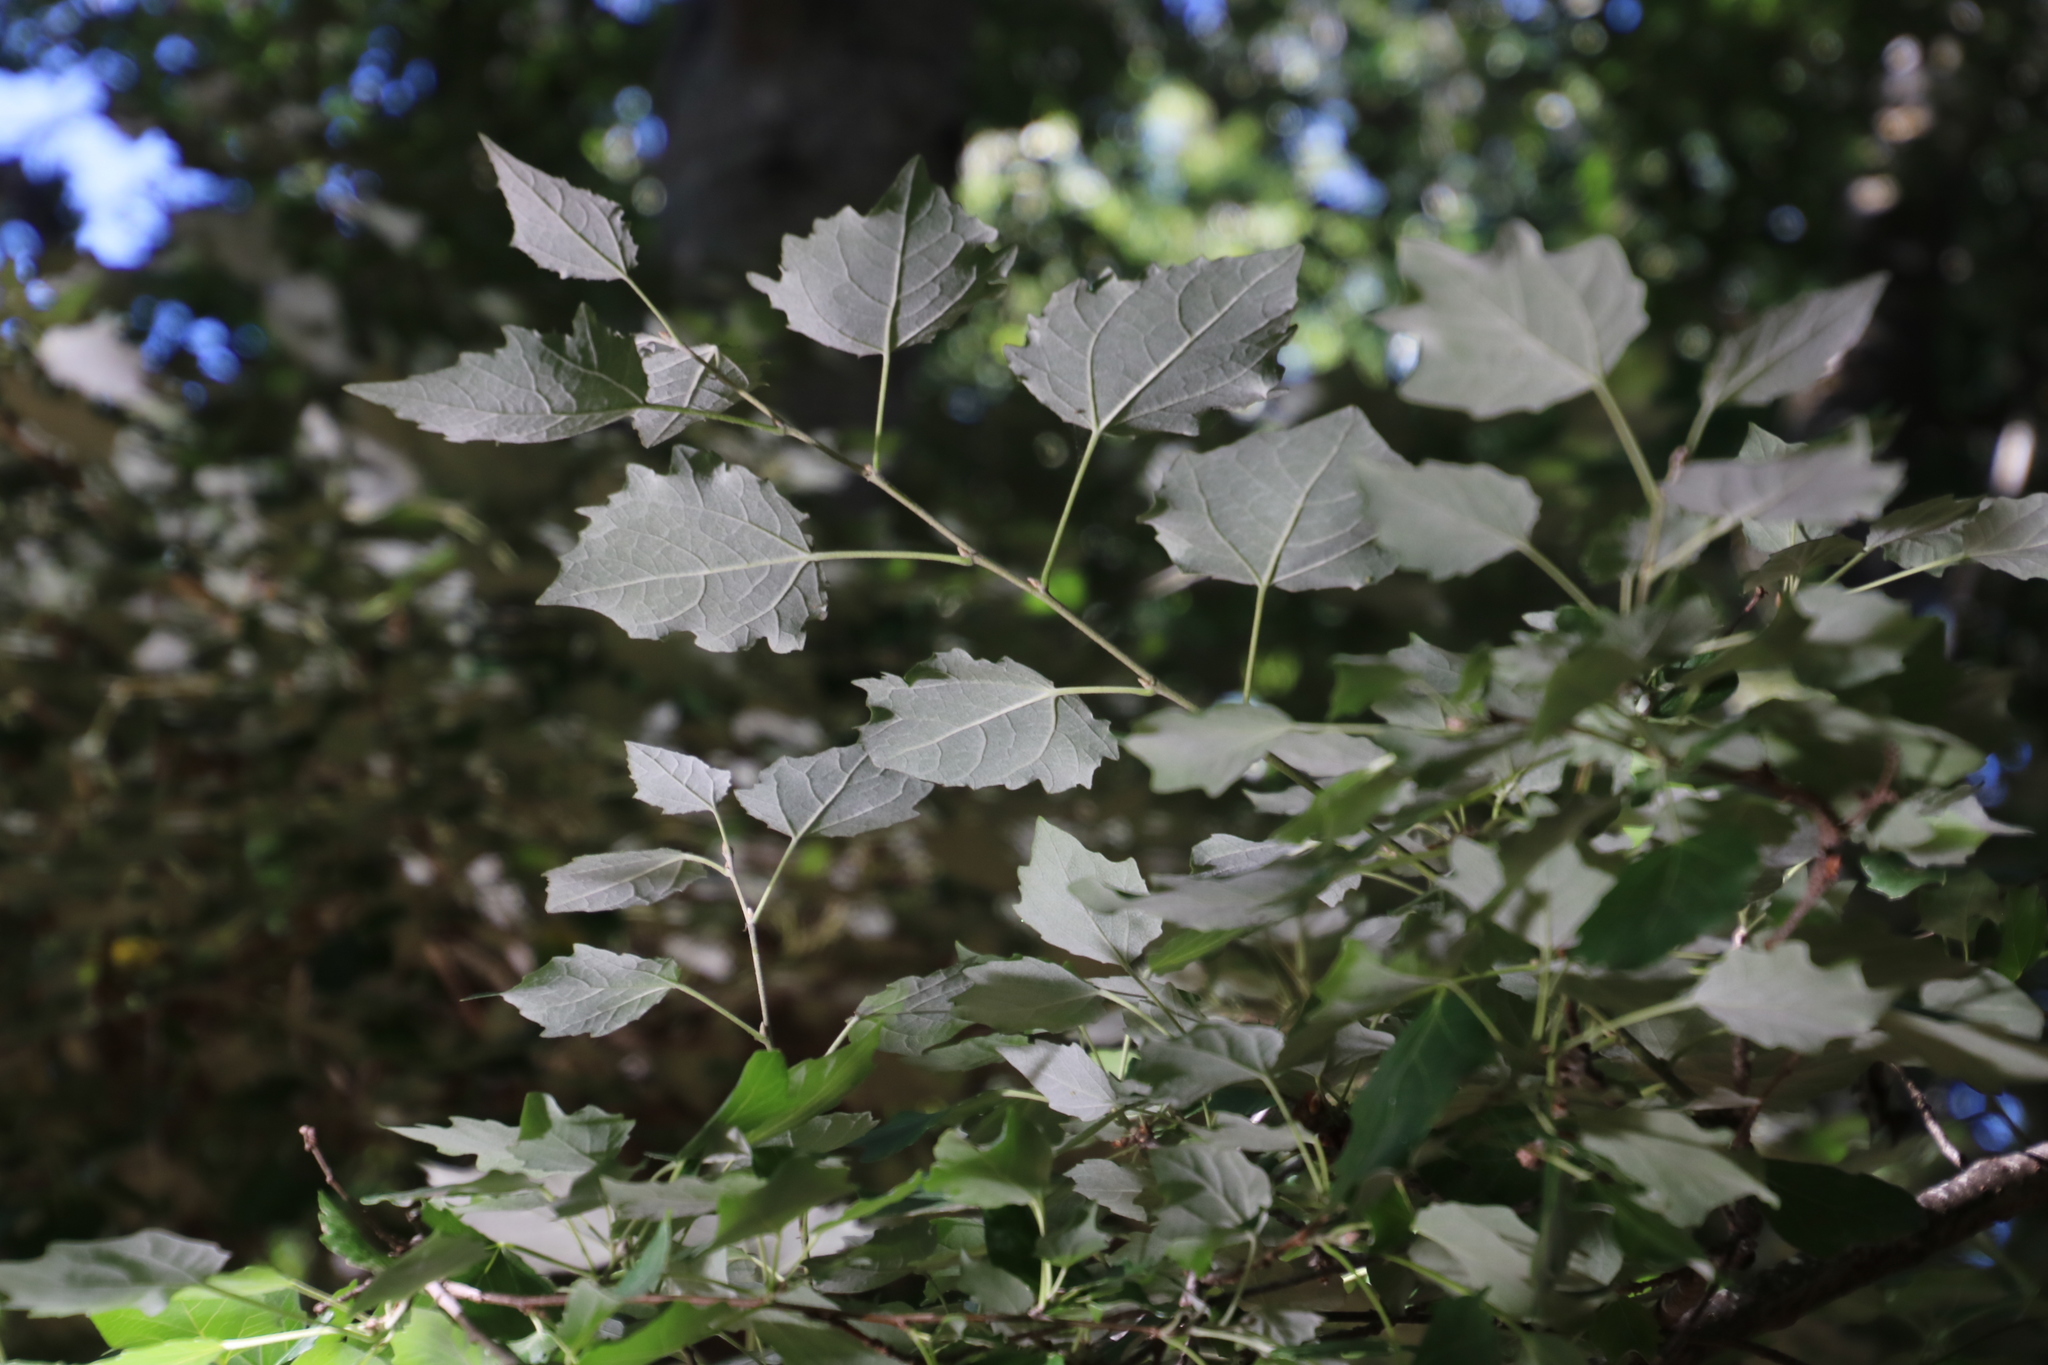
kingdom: Plantae
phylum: Tracheophyta
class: Magnoliopsida
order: Malpighiales
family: Salicaceae
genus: Populus
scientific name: Populus canescens
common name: Gray poplar
